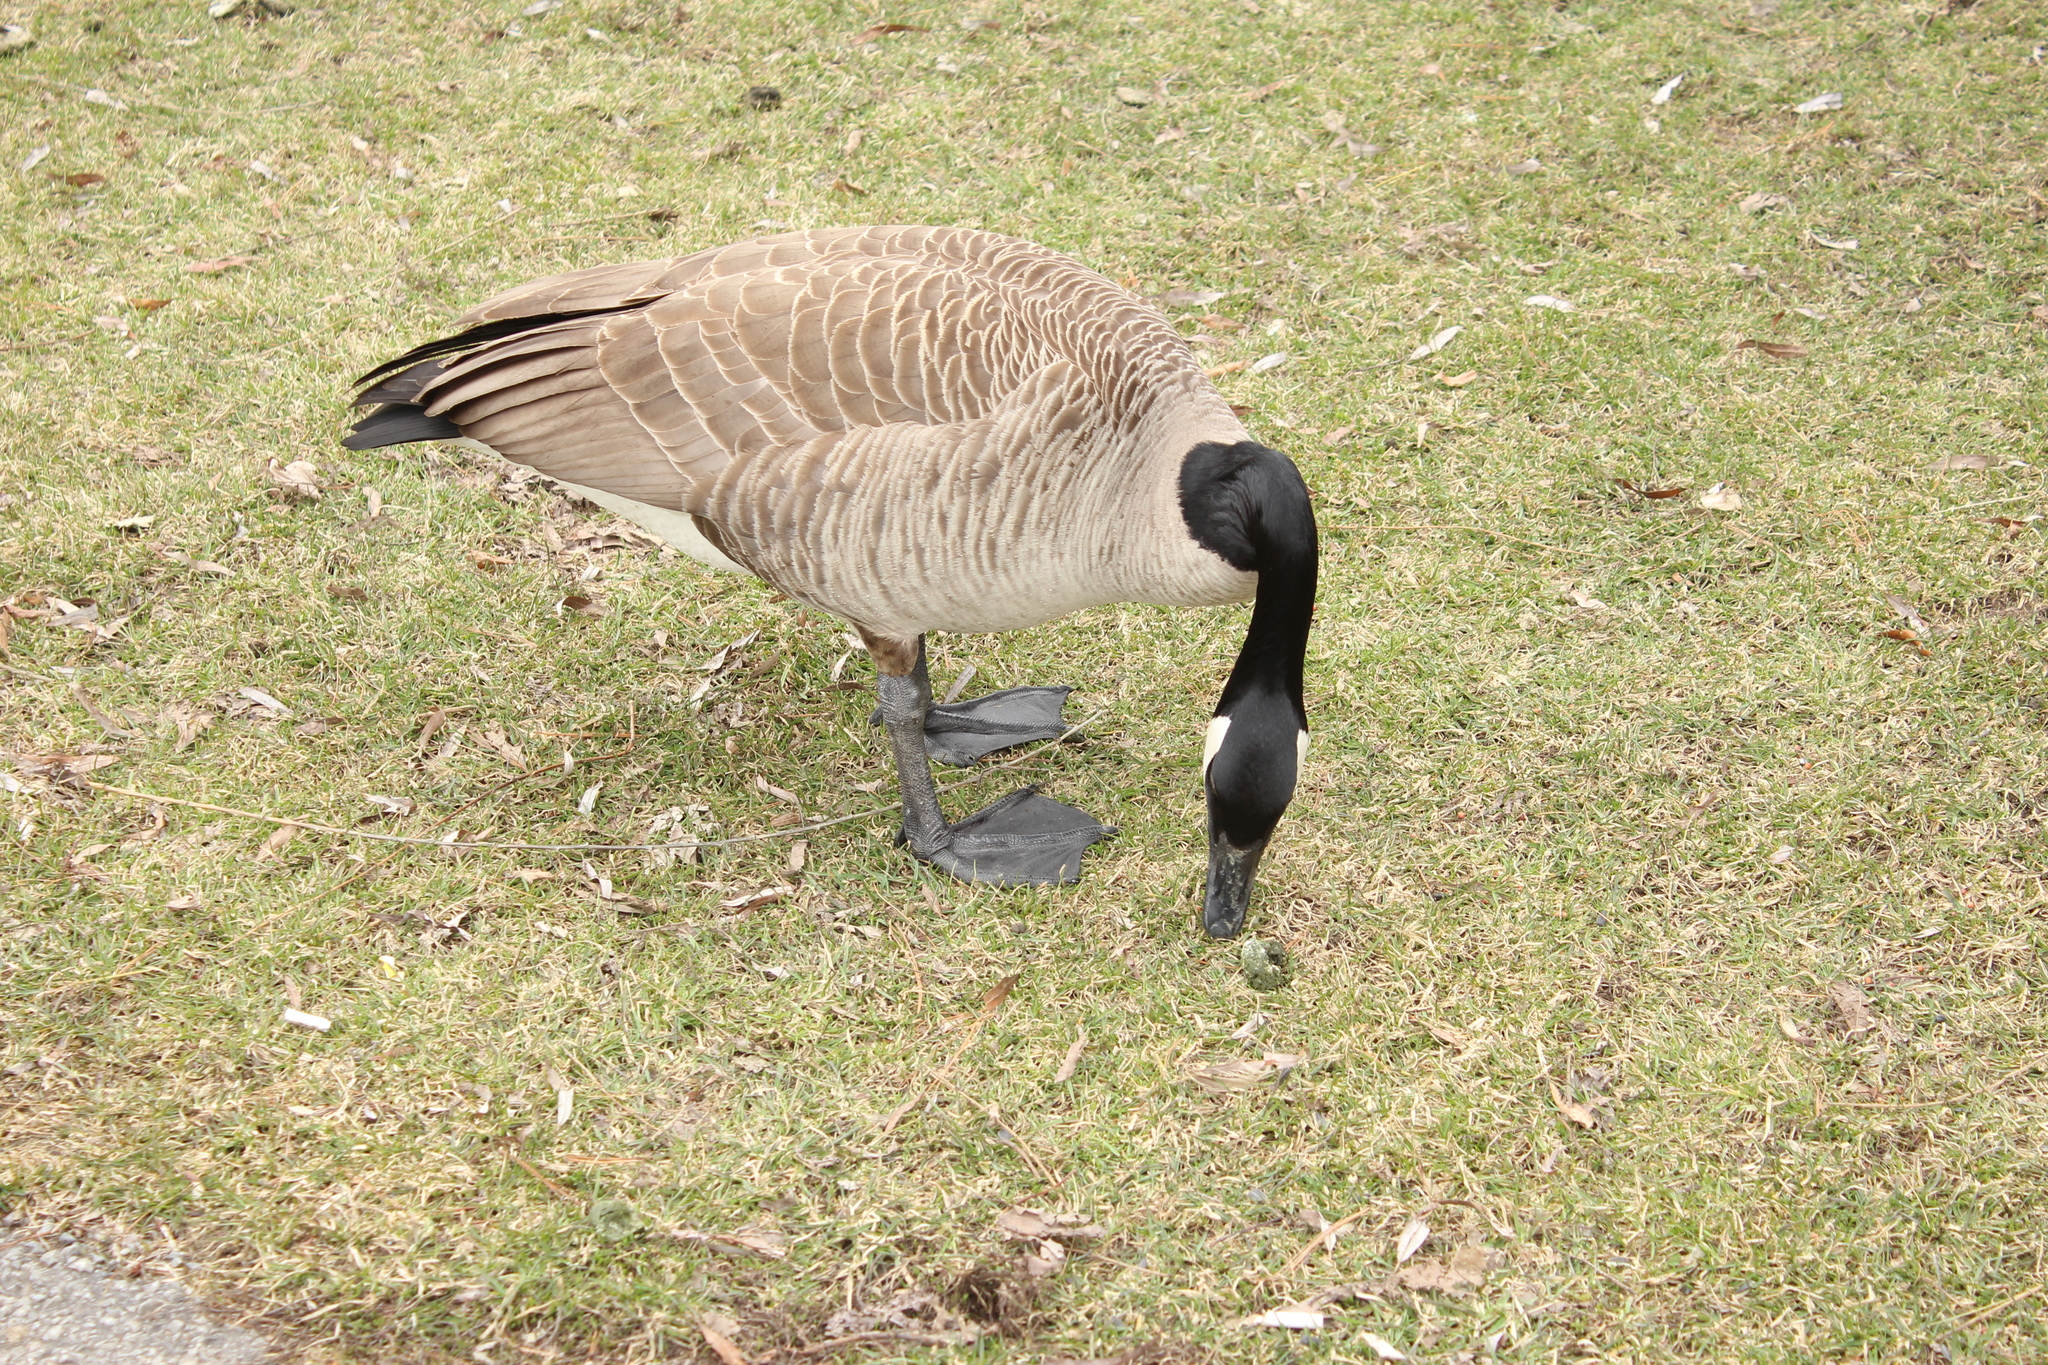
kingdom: Animalia
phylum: Chordata
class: Aves
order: Anseriformes
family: Anatidae
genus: Branta
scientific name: Branta canadensis
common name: Canada goose
